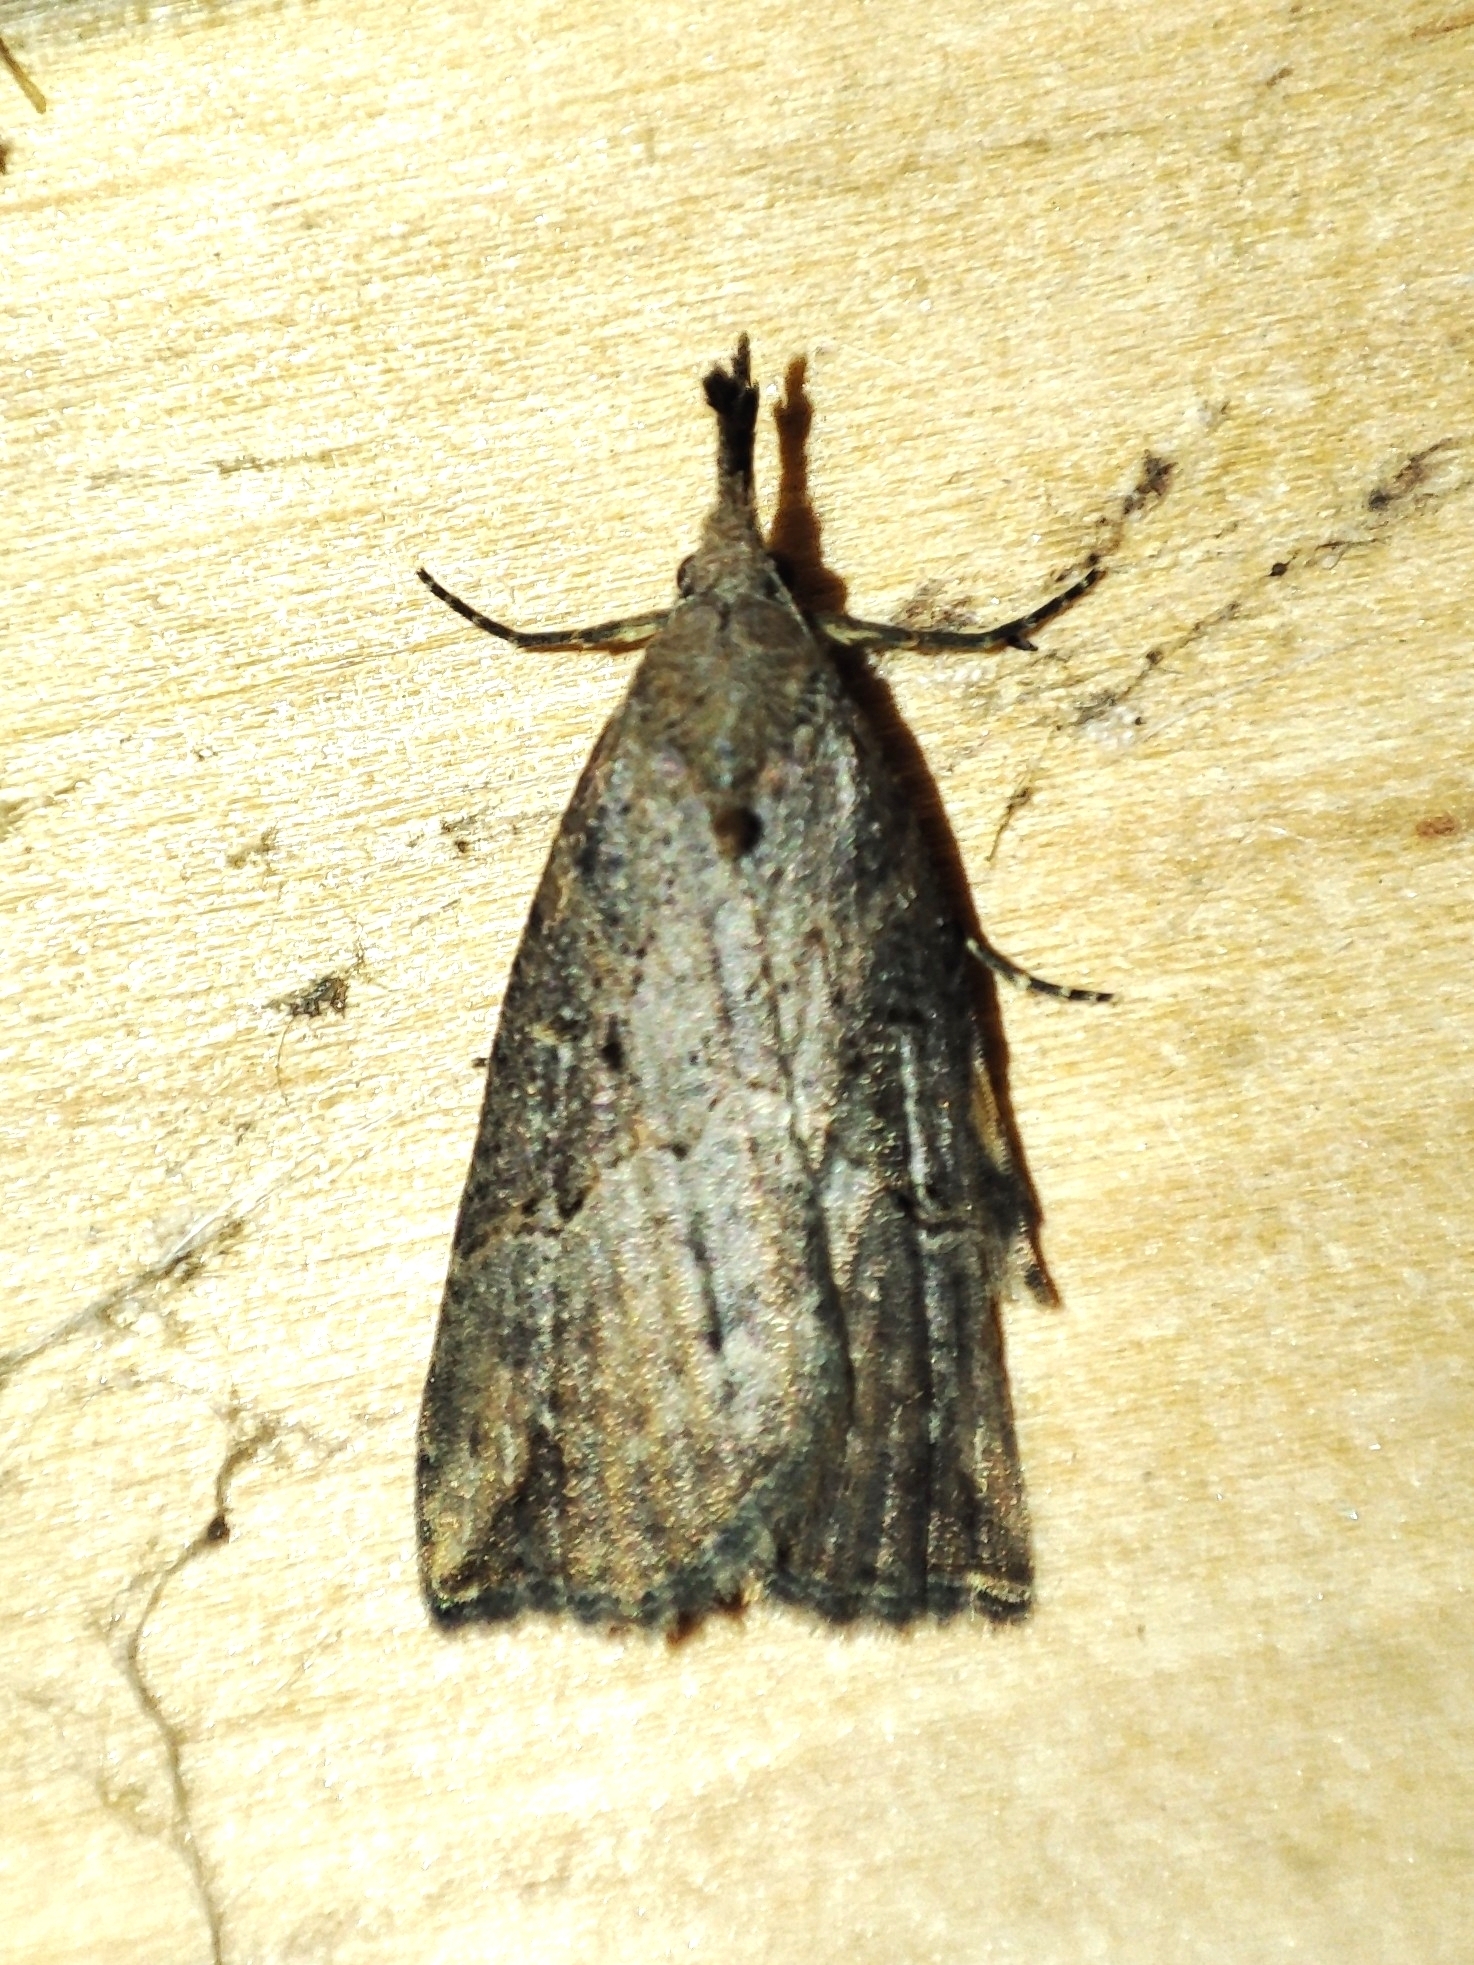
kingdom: Animalia
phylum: Arthropoda
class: Insecta
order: Lepidoptera
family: Erebidae
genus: Hypena
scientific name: Hypena rostralis
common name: Buttoned snout
